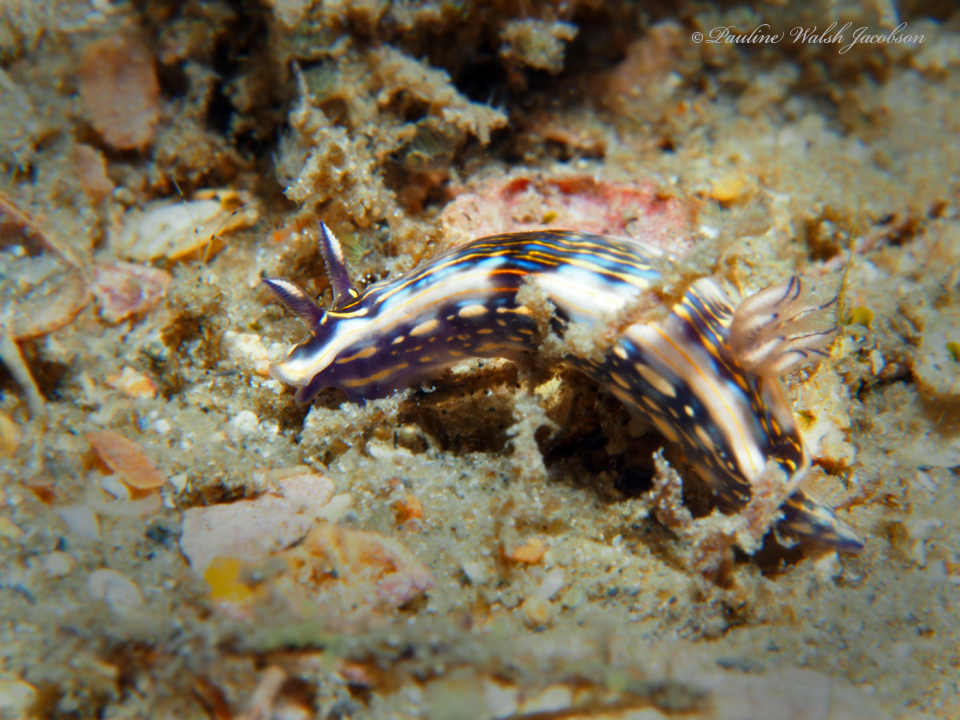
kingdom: Animalia
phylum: Mollusca
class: Gastropoda
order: Nudibranchia
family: Chromodorididae
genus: Felimare
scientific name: Felimare ruthae
